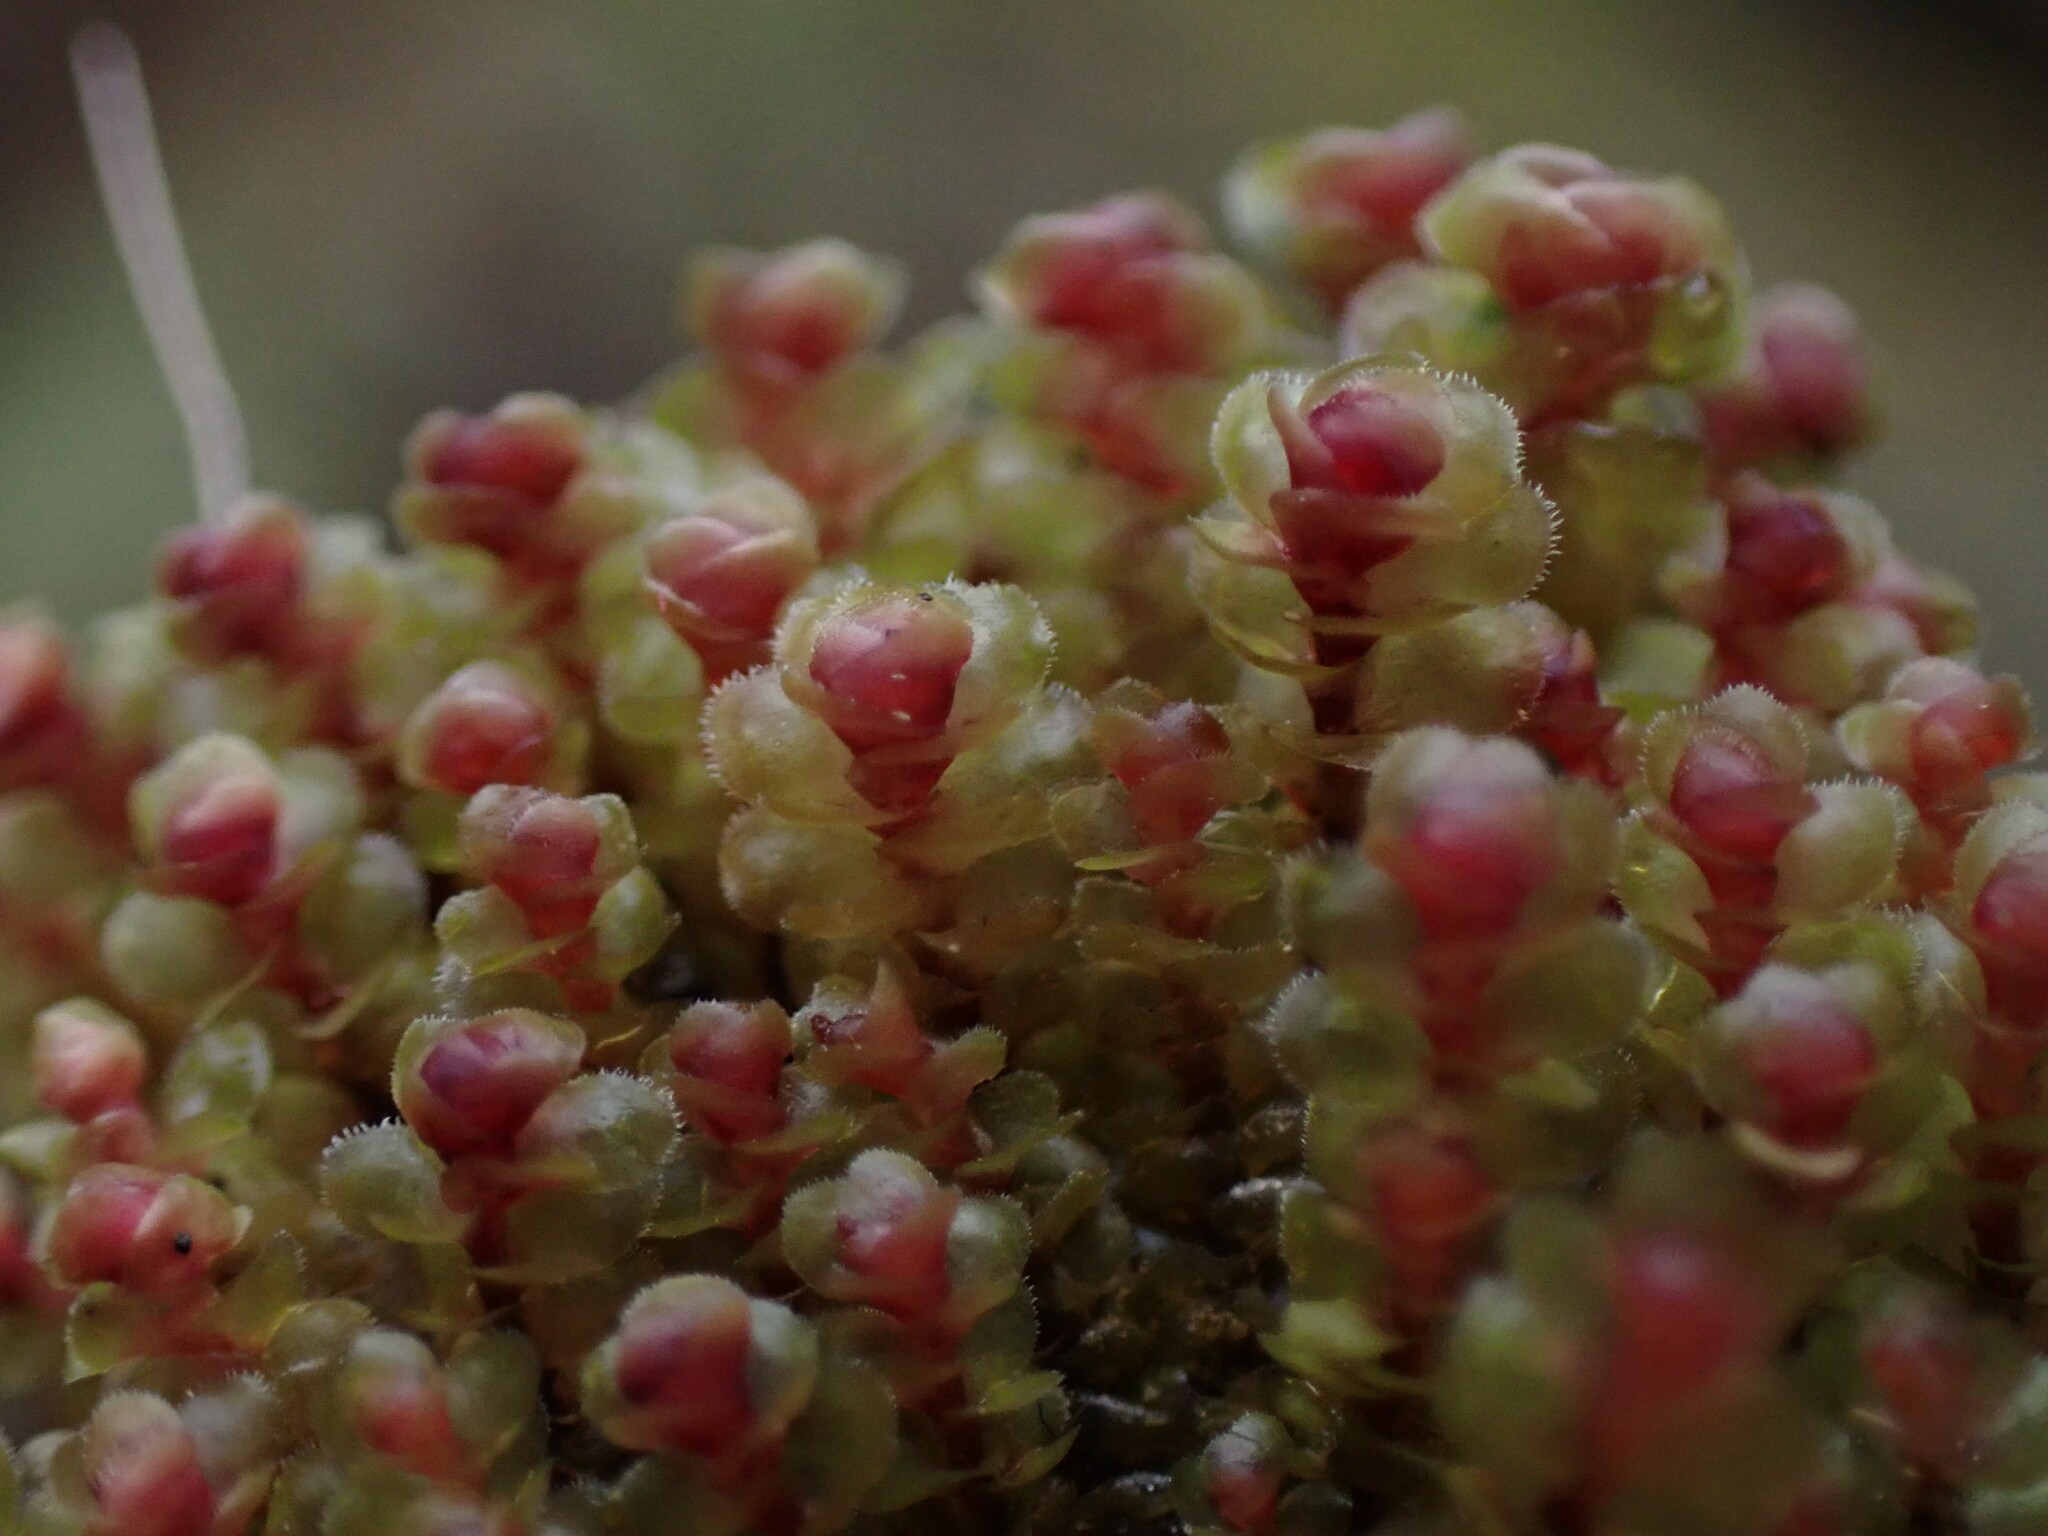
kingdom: Plantae
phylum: Marchantiophyta
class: Jungermanniopsida
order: Jungermanniales
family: Scapaniaceae
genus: Scapania
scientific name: Scapania americana
